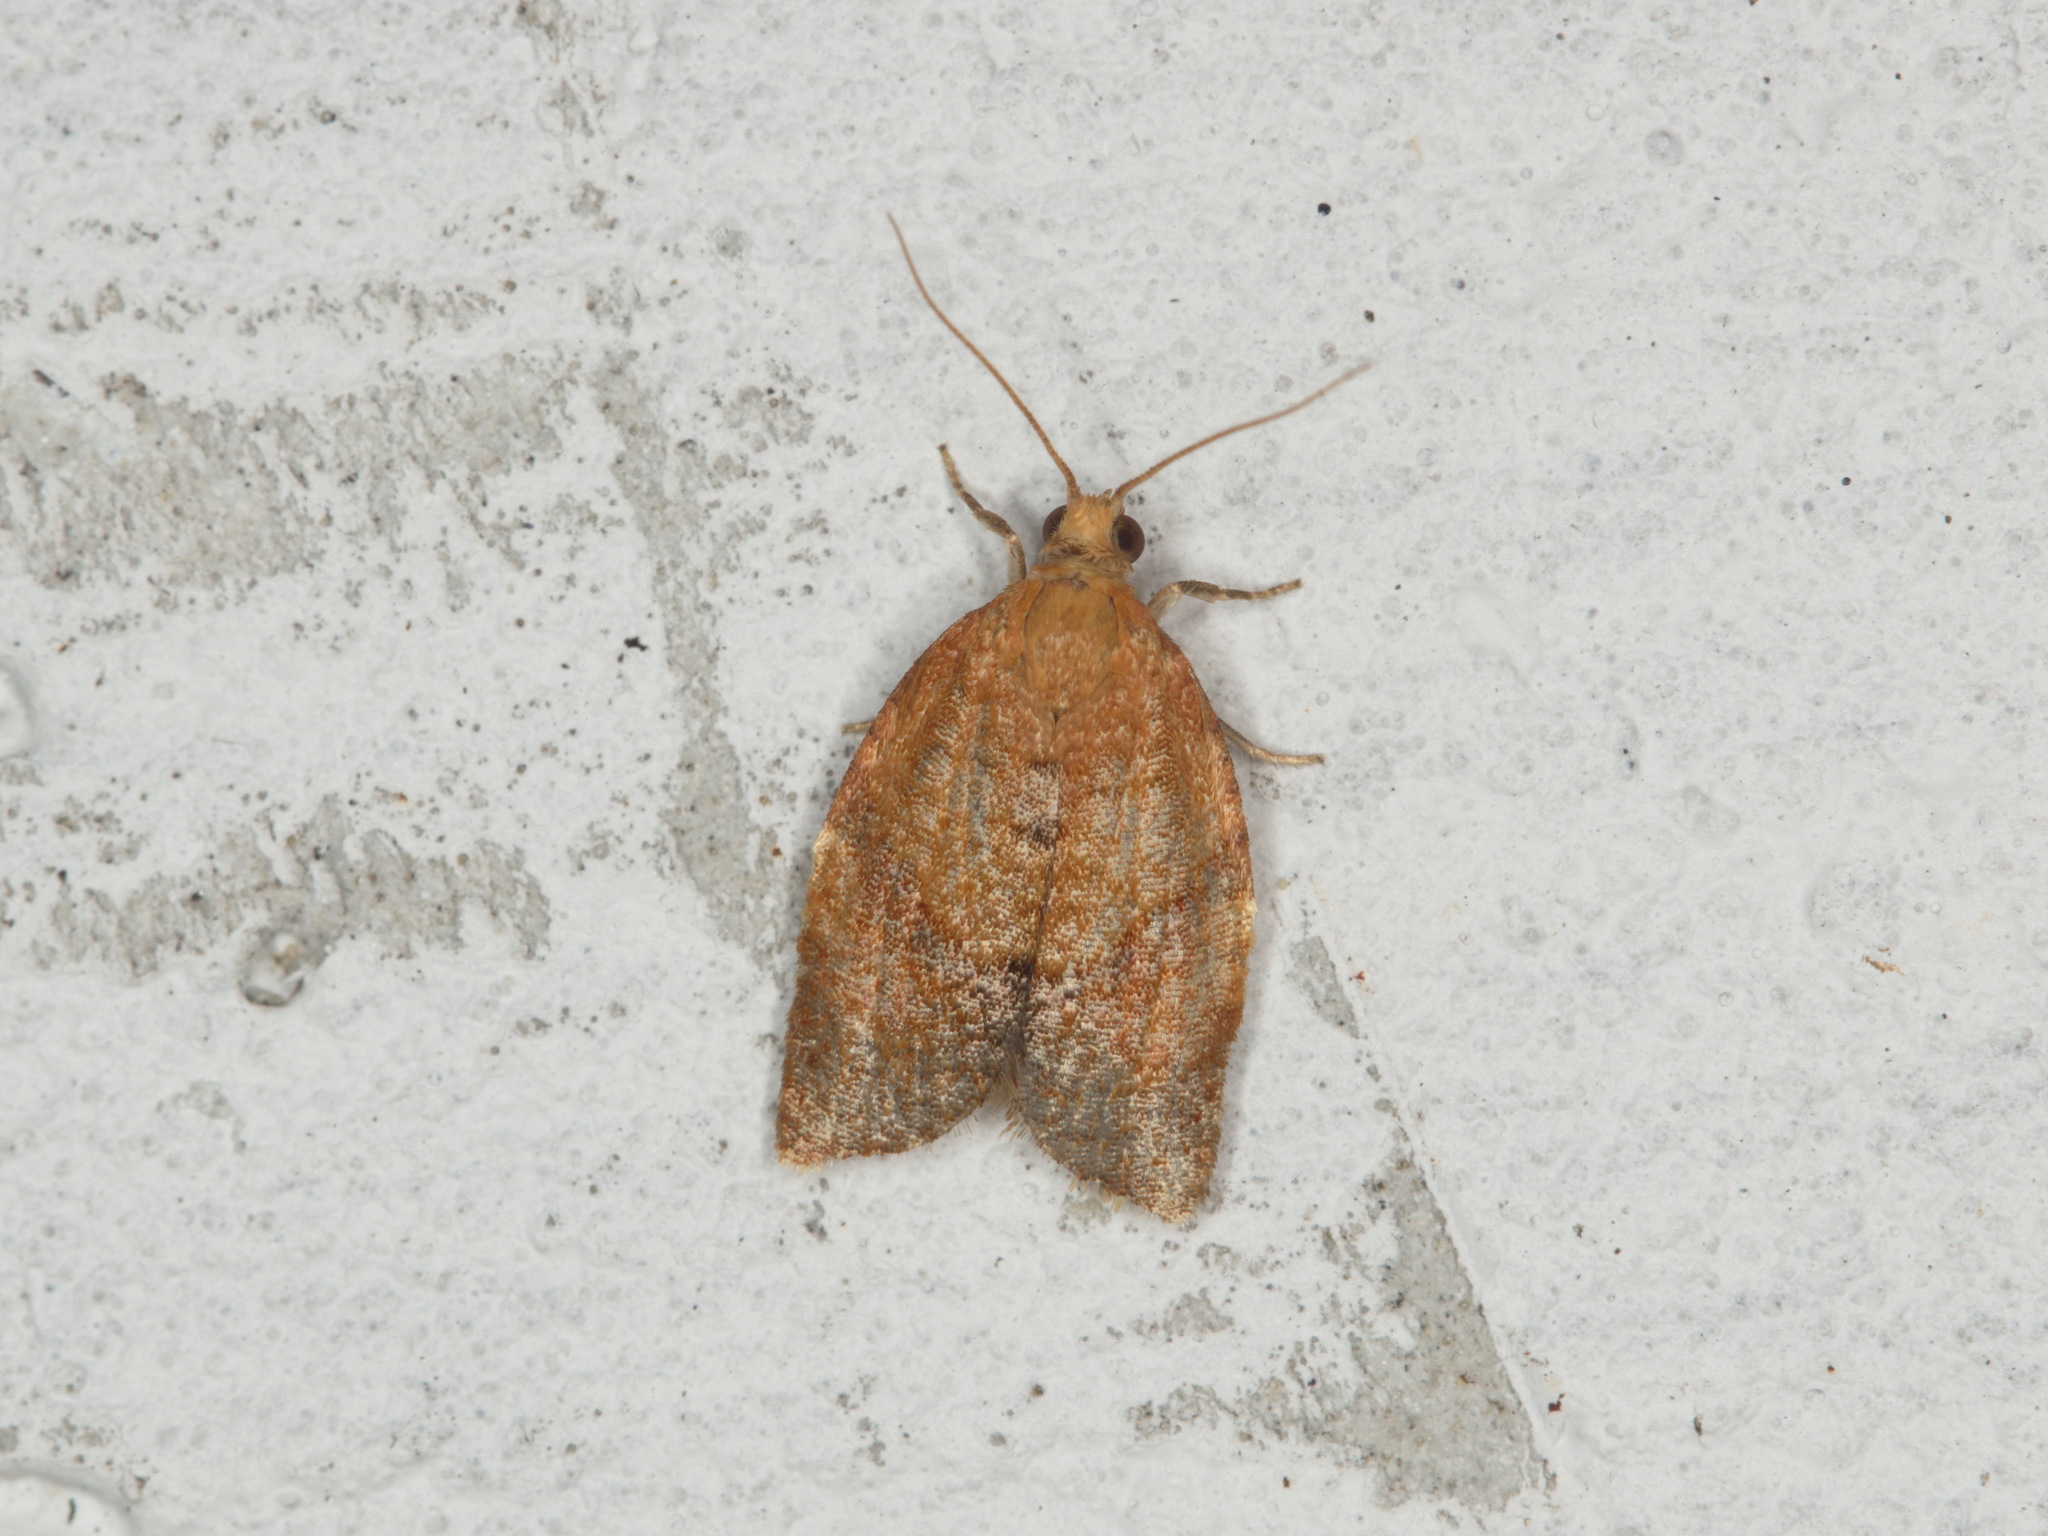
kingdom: Animalia
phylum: Arthropoda
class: Insecta
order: Lepidoptera
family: Tortricidae
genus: Clepsis
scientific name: Clepsis consimilana
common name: Privet tortrix
